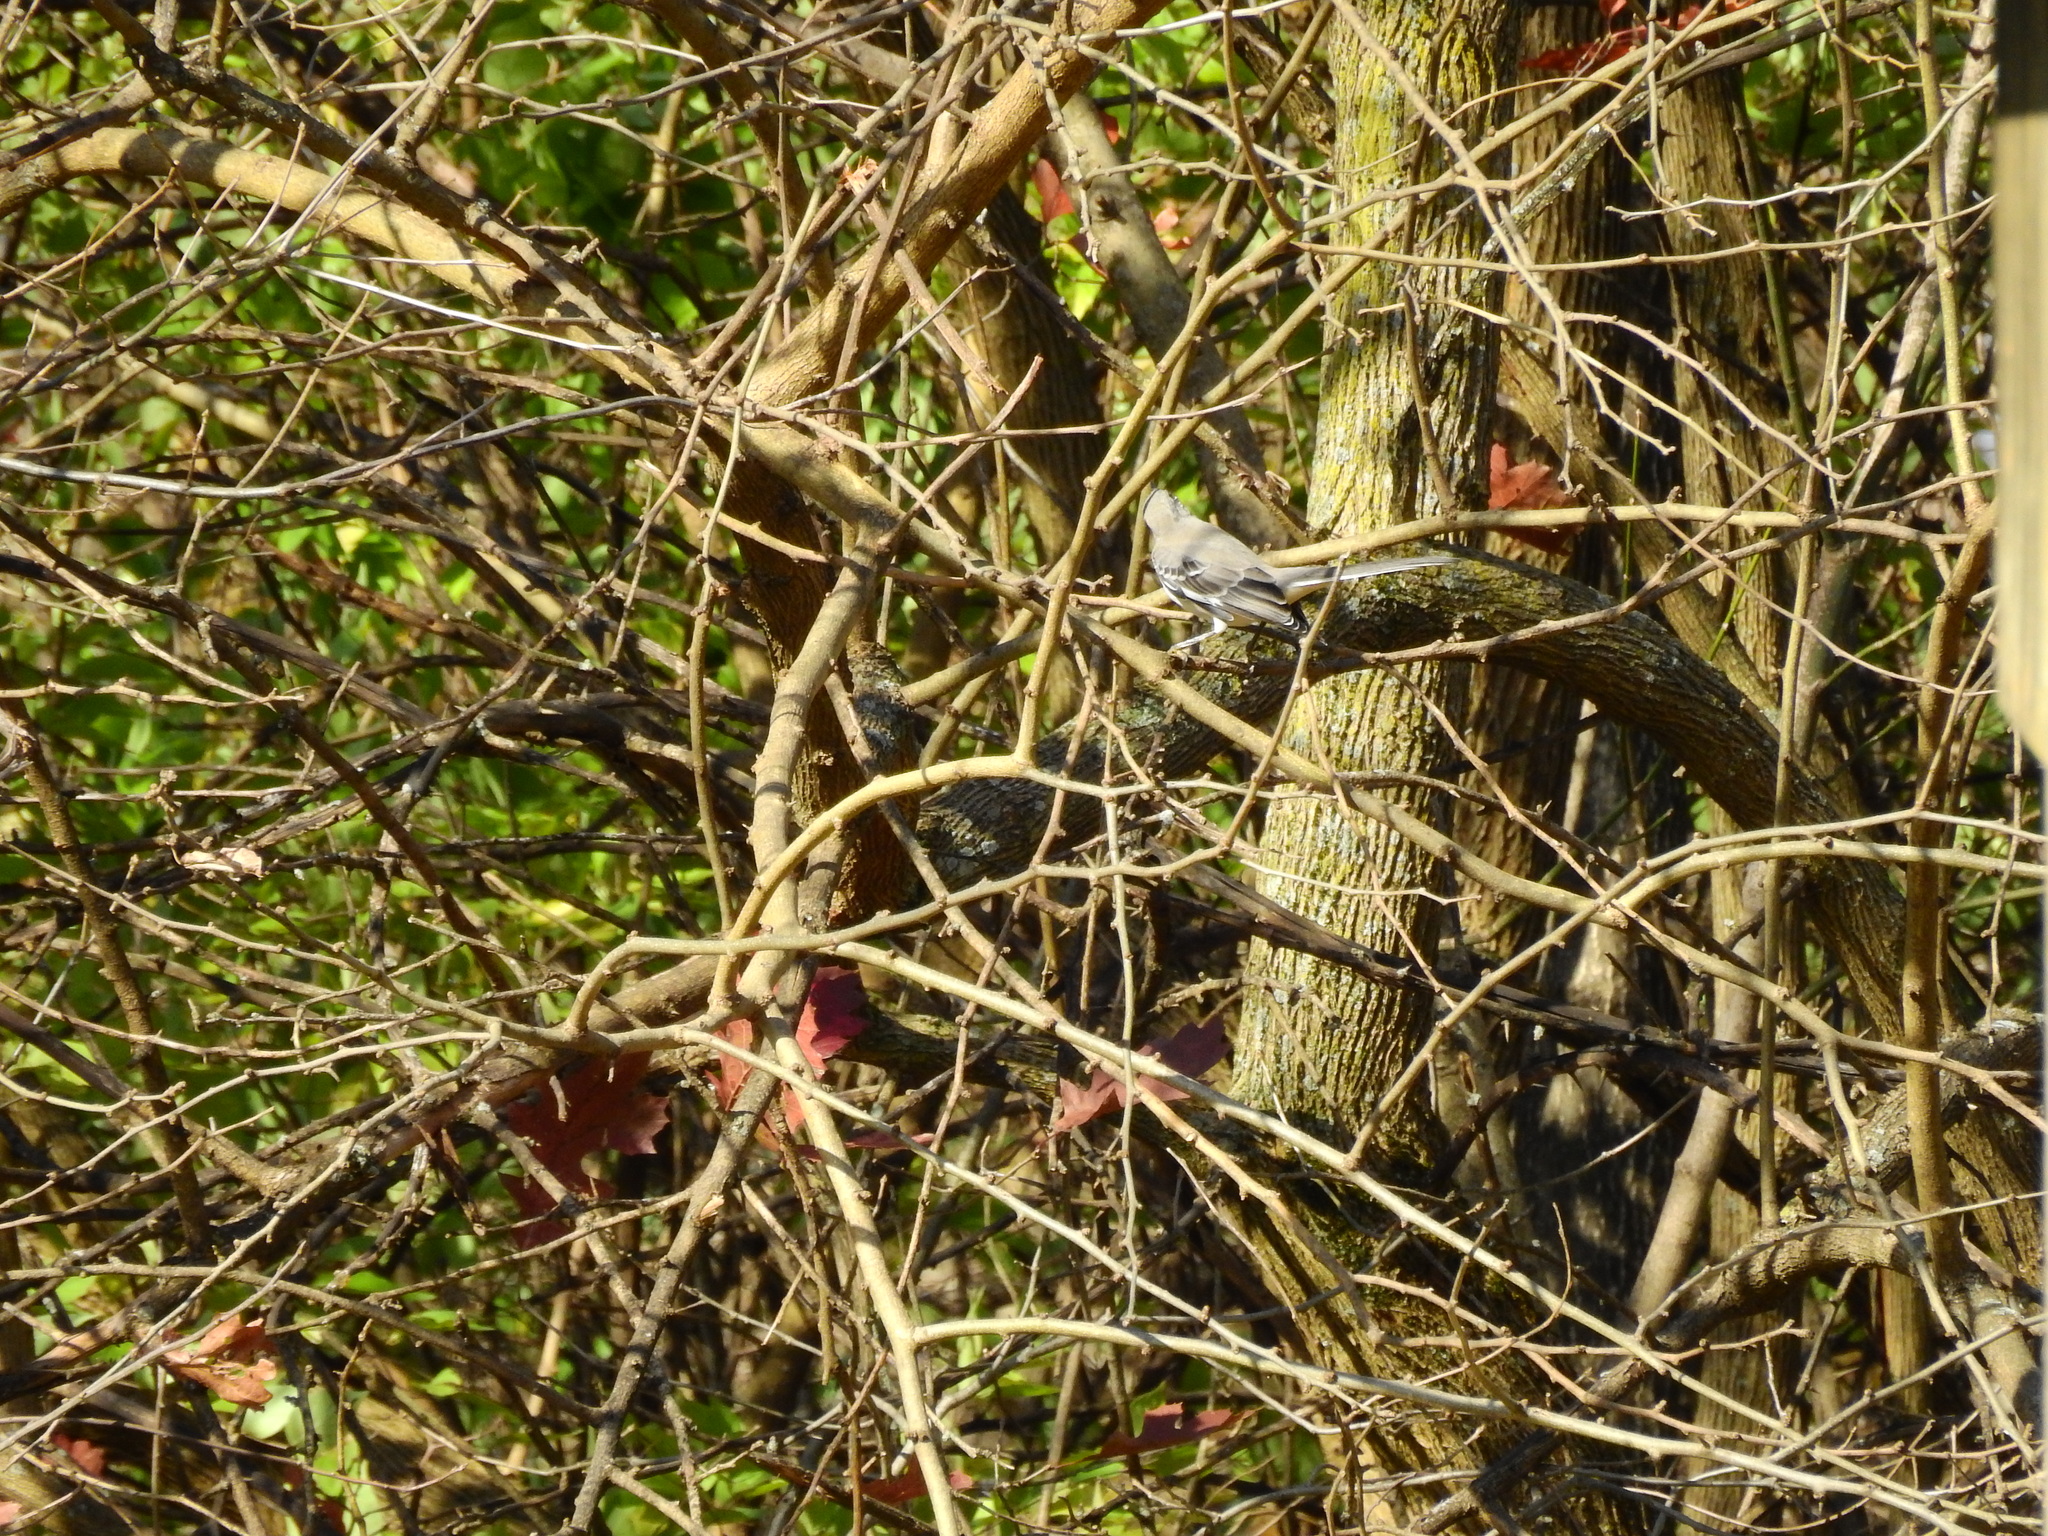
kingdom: Animalia
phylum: Chordata
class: Aves
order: Passeriformes
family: Mimidae
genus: Mimus
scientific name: Mimus polyglottos
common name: Northern mockingbird
